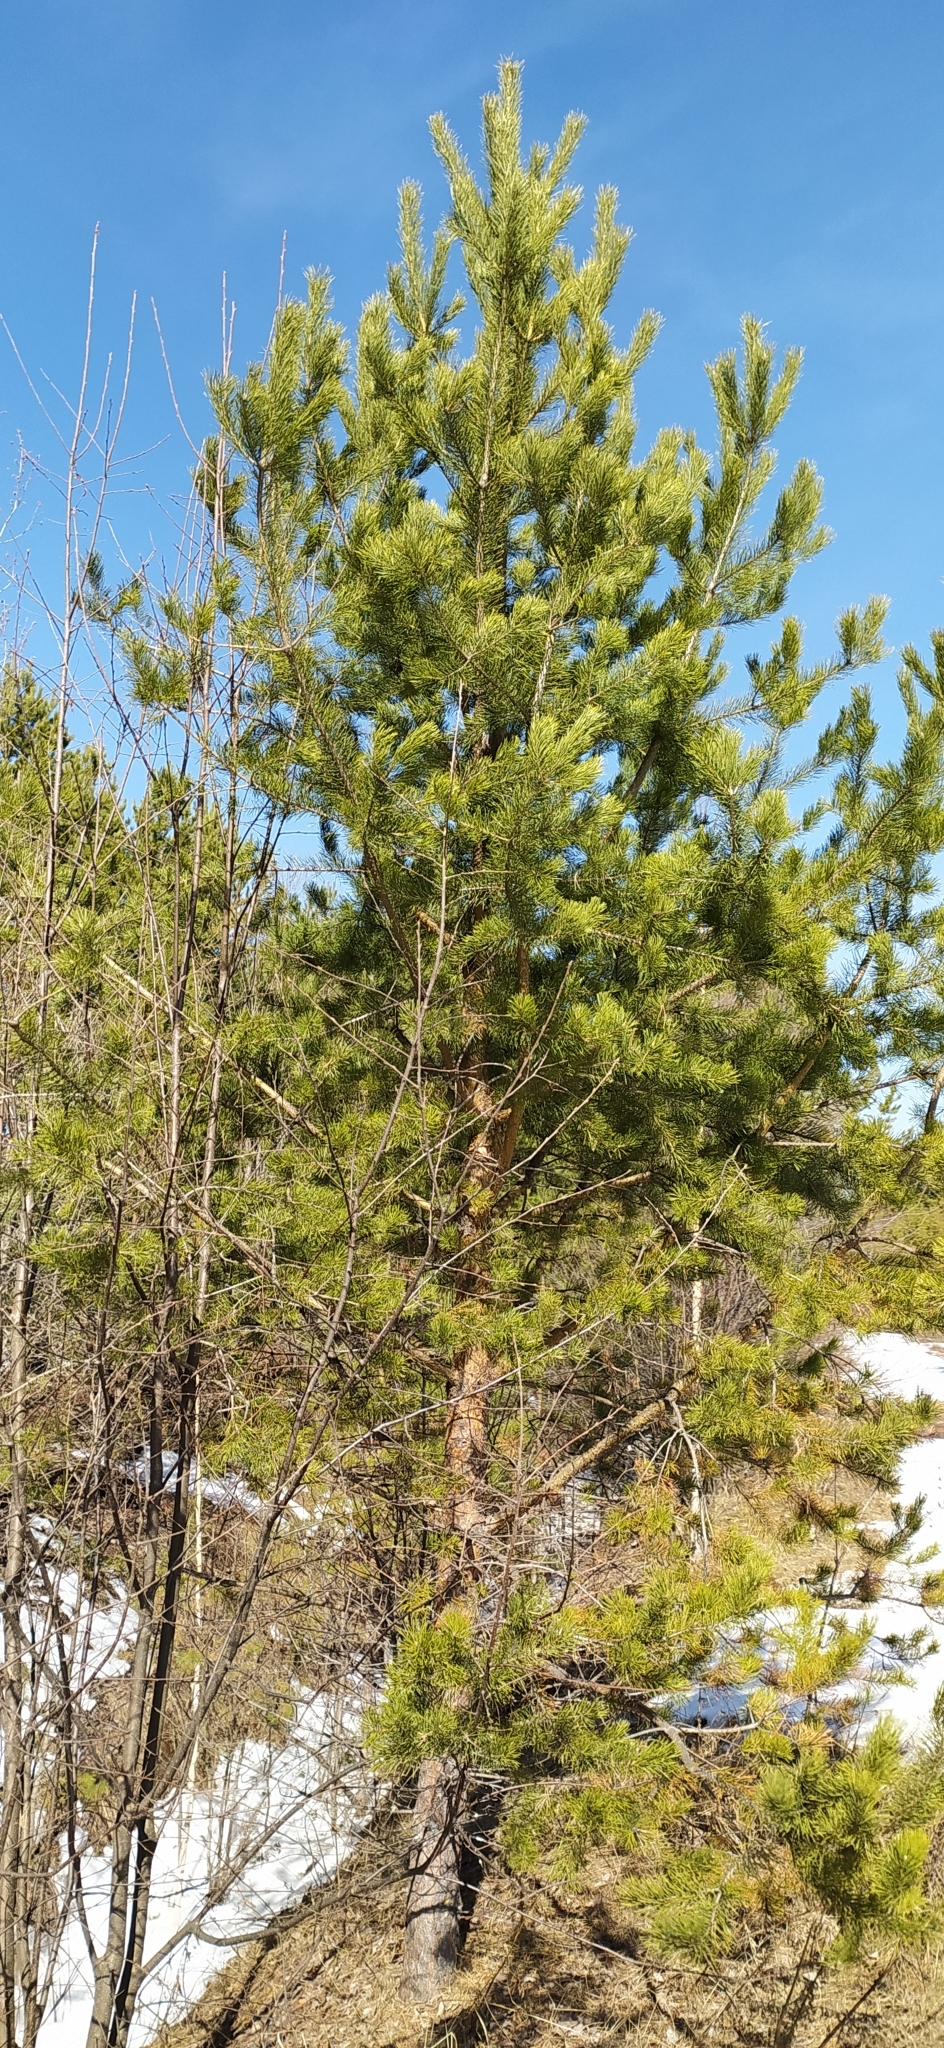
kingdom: Plantae
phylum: Tracheophyta
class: Pinopsida
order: Pinales
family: Pinaceae
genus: Pinus
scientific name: Pinus sylvestris
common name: Scots pine
